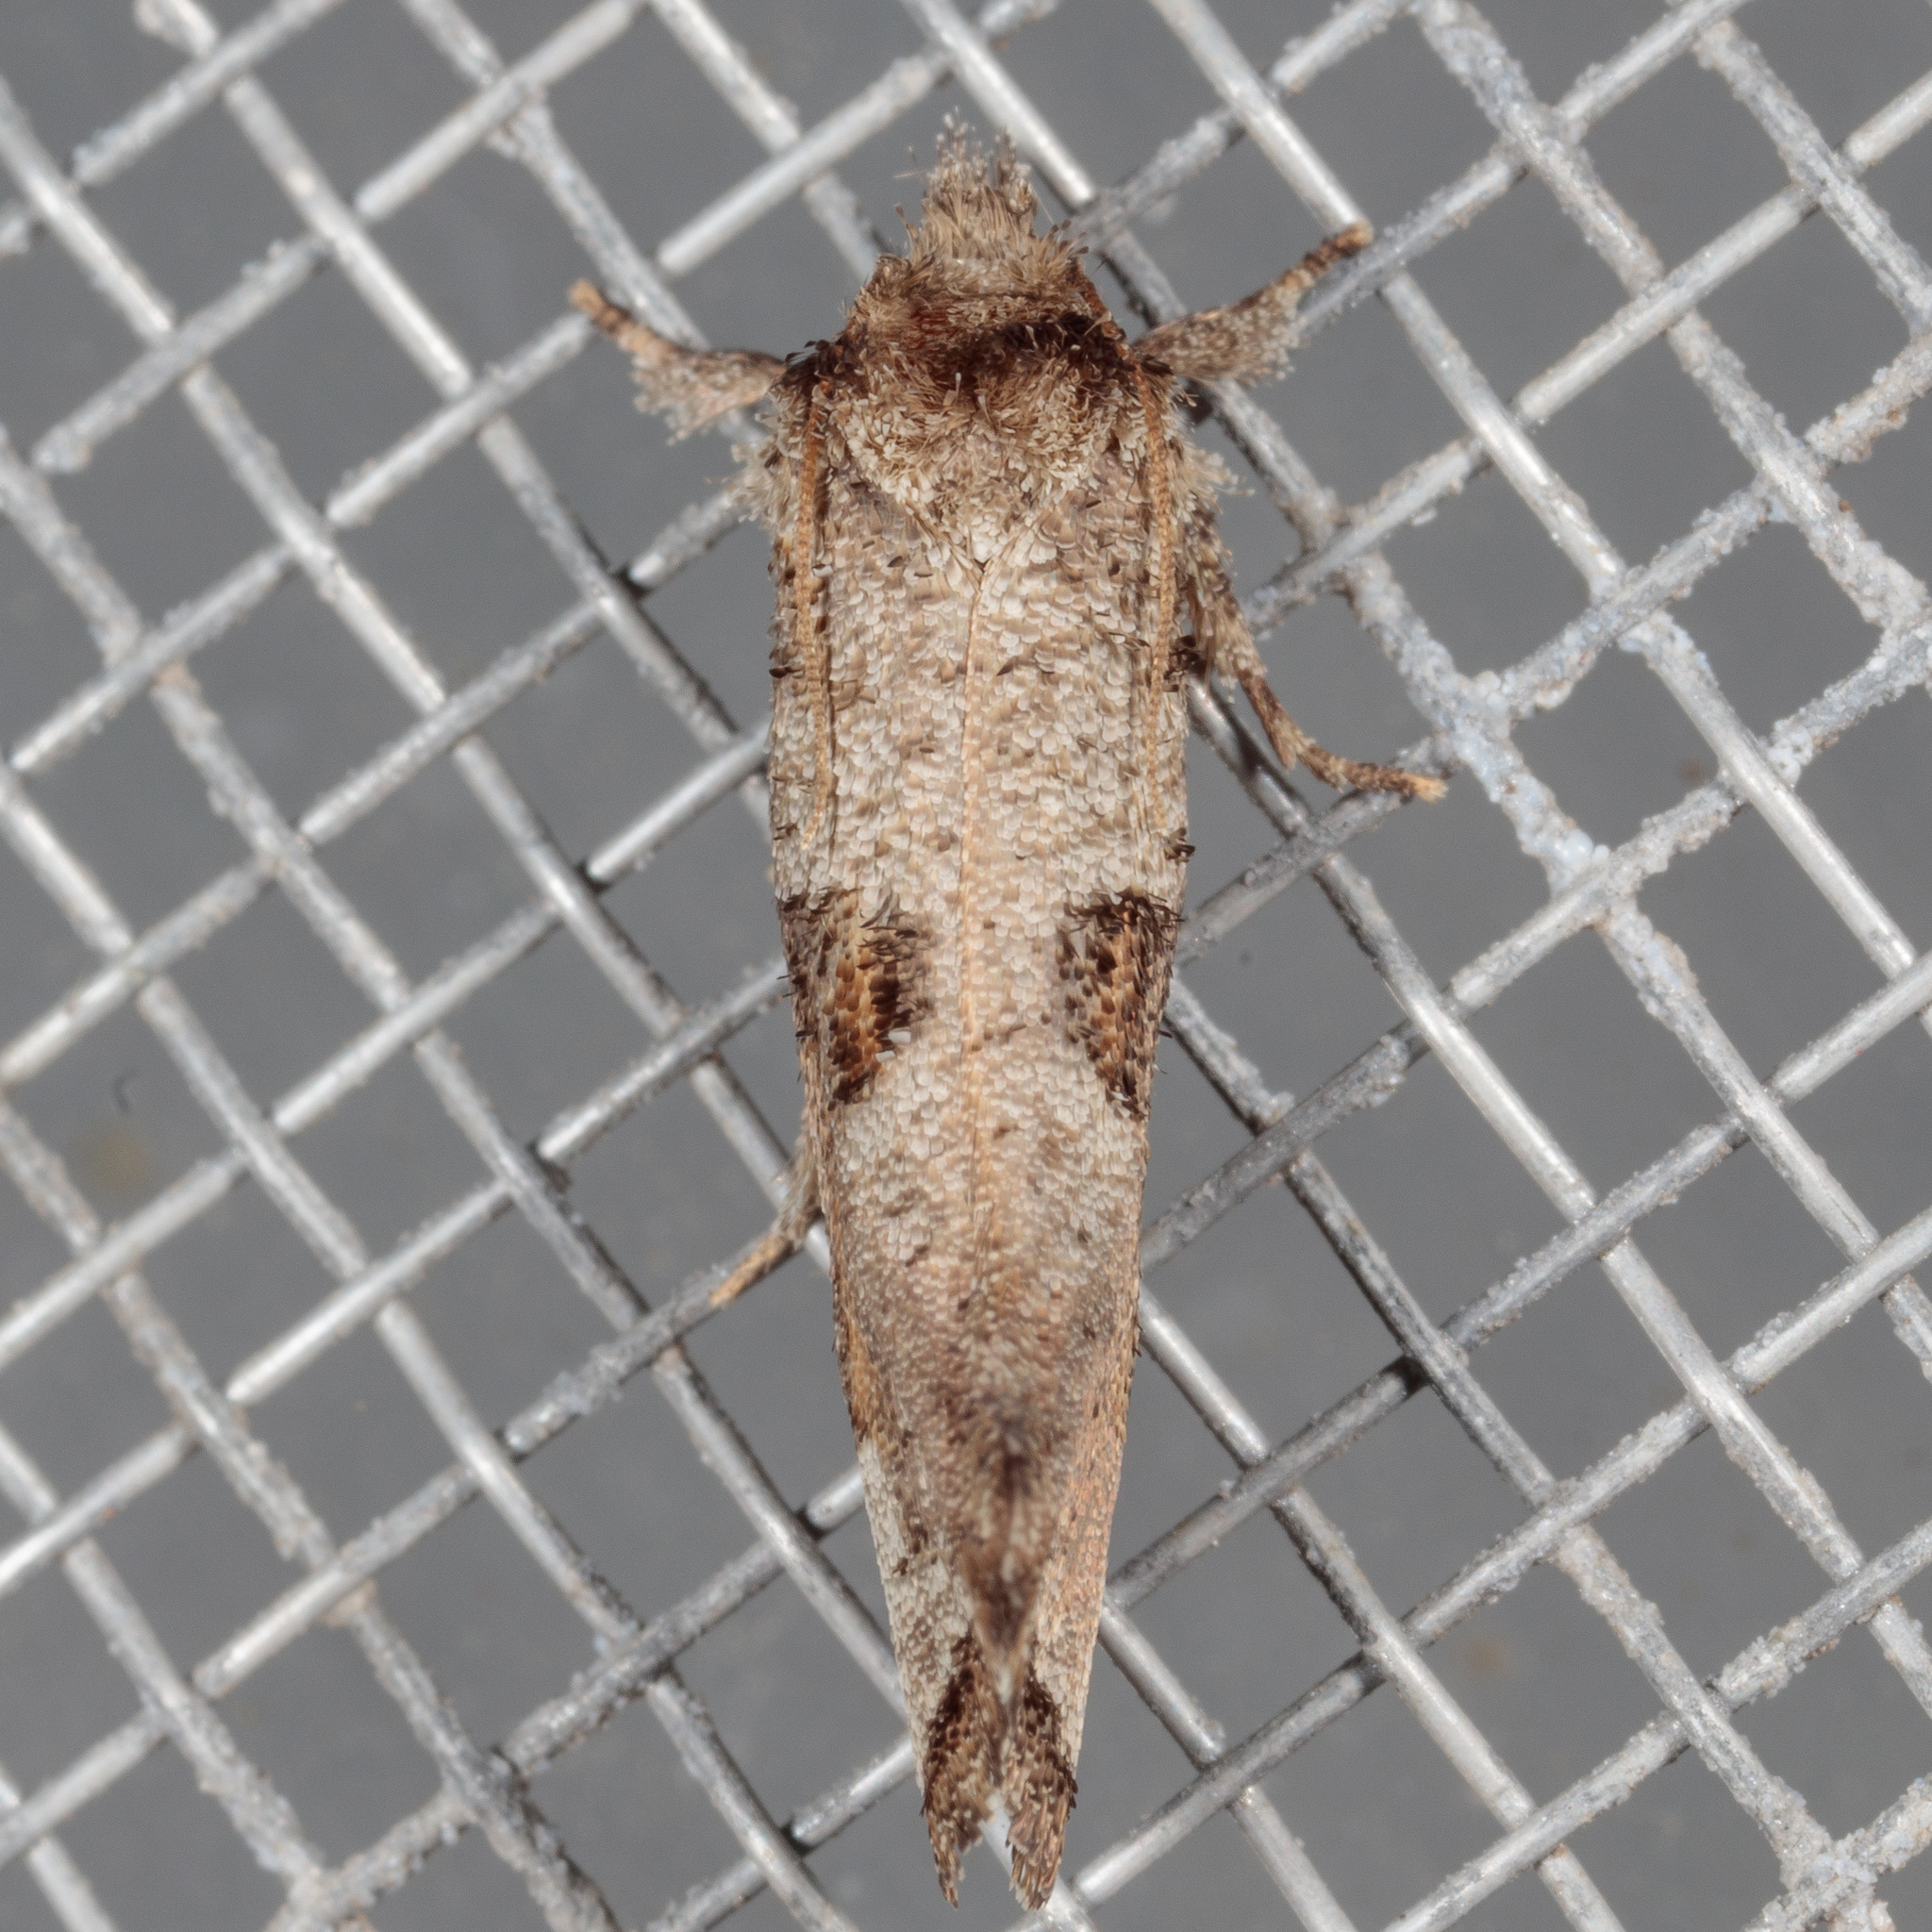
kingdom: Animalia
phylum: Arthropoda
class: Insecta
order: Lepidoptera
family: Tineidae
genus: Acrolophus
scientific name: Acrolophus piger
